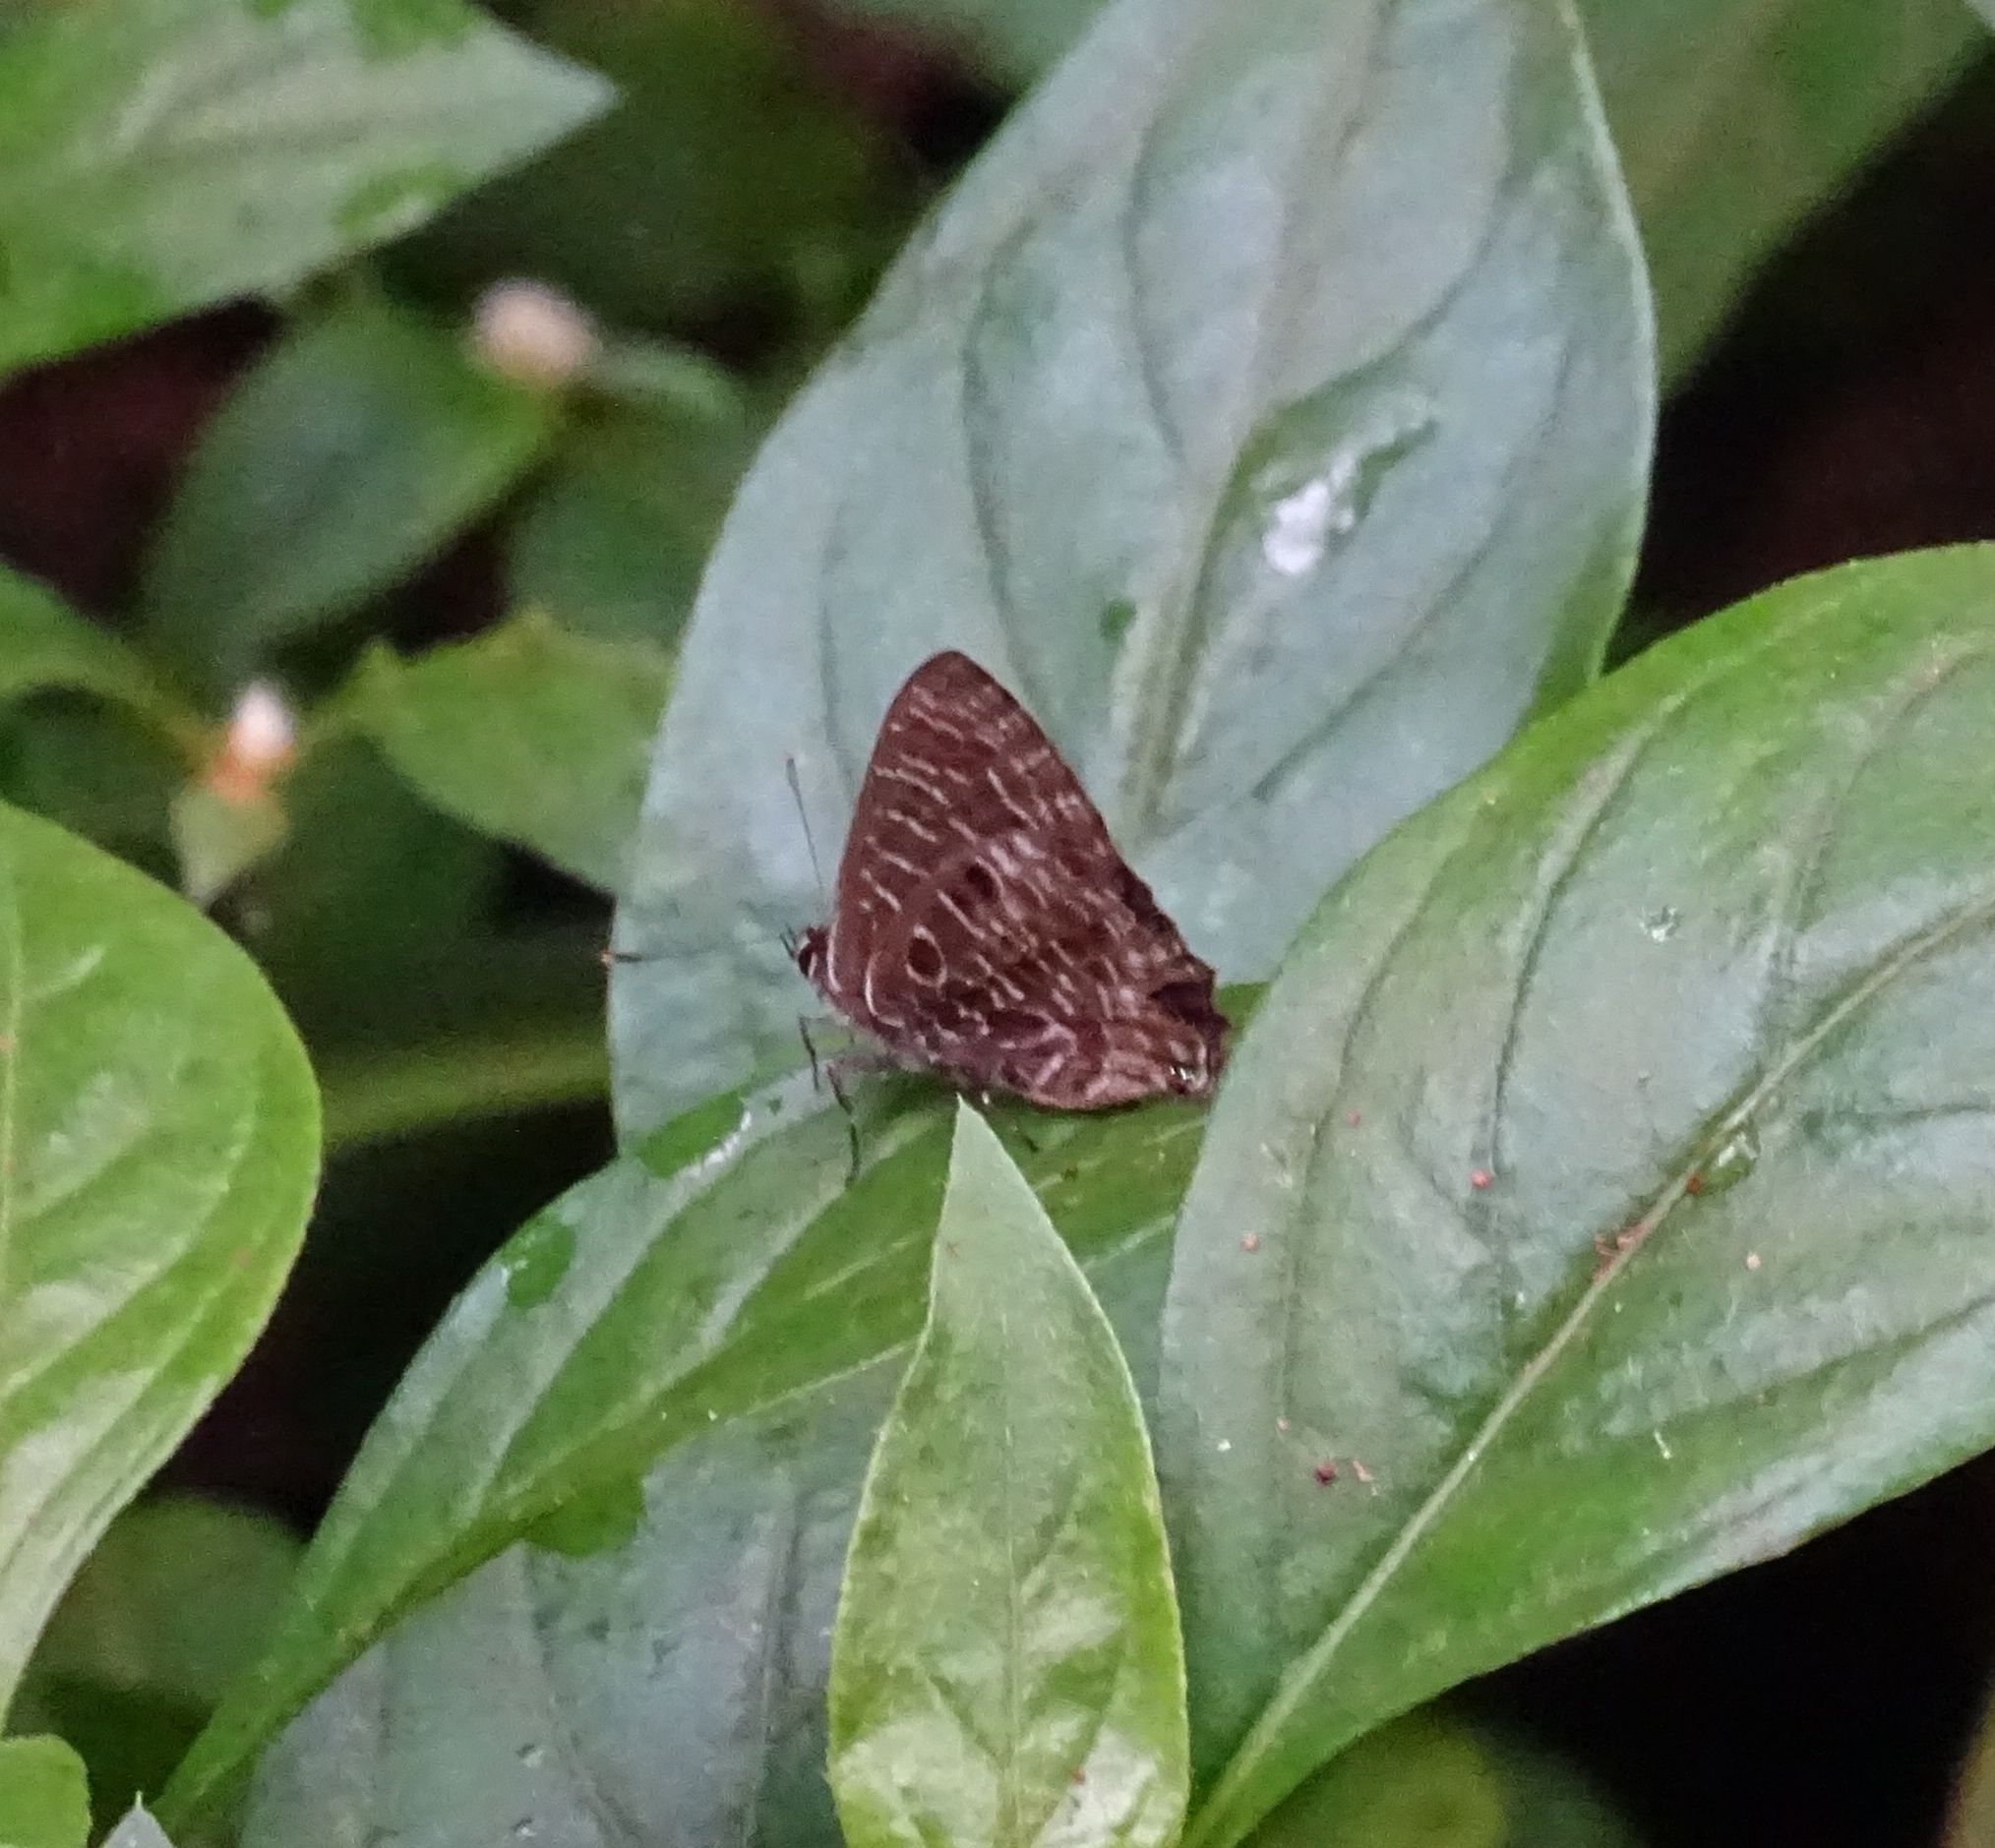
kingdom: Animalia
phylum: Arthropoda
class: Insecta
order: Lepidoptera
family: Lycaenidae
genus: Anthene
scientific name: Anthene larydas
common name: Forest hairtail
